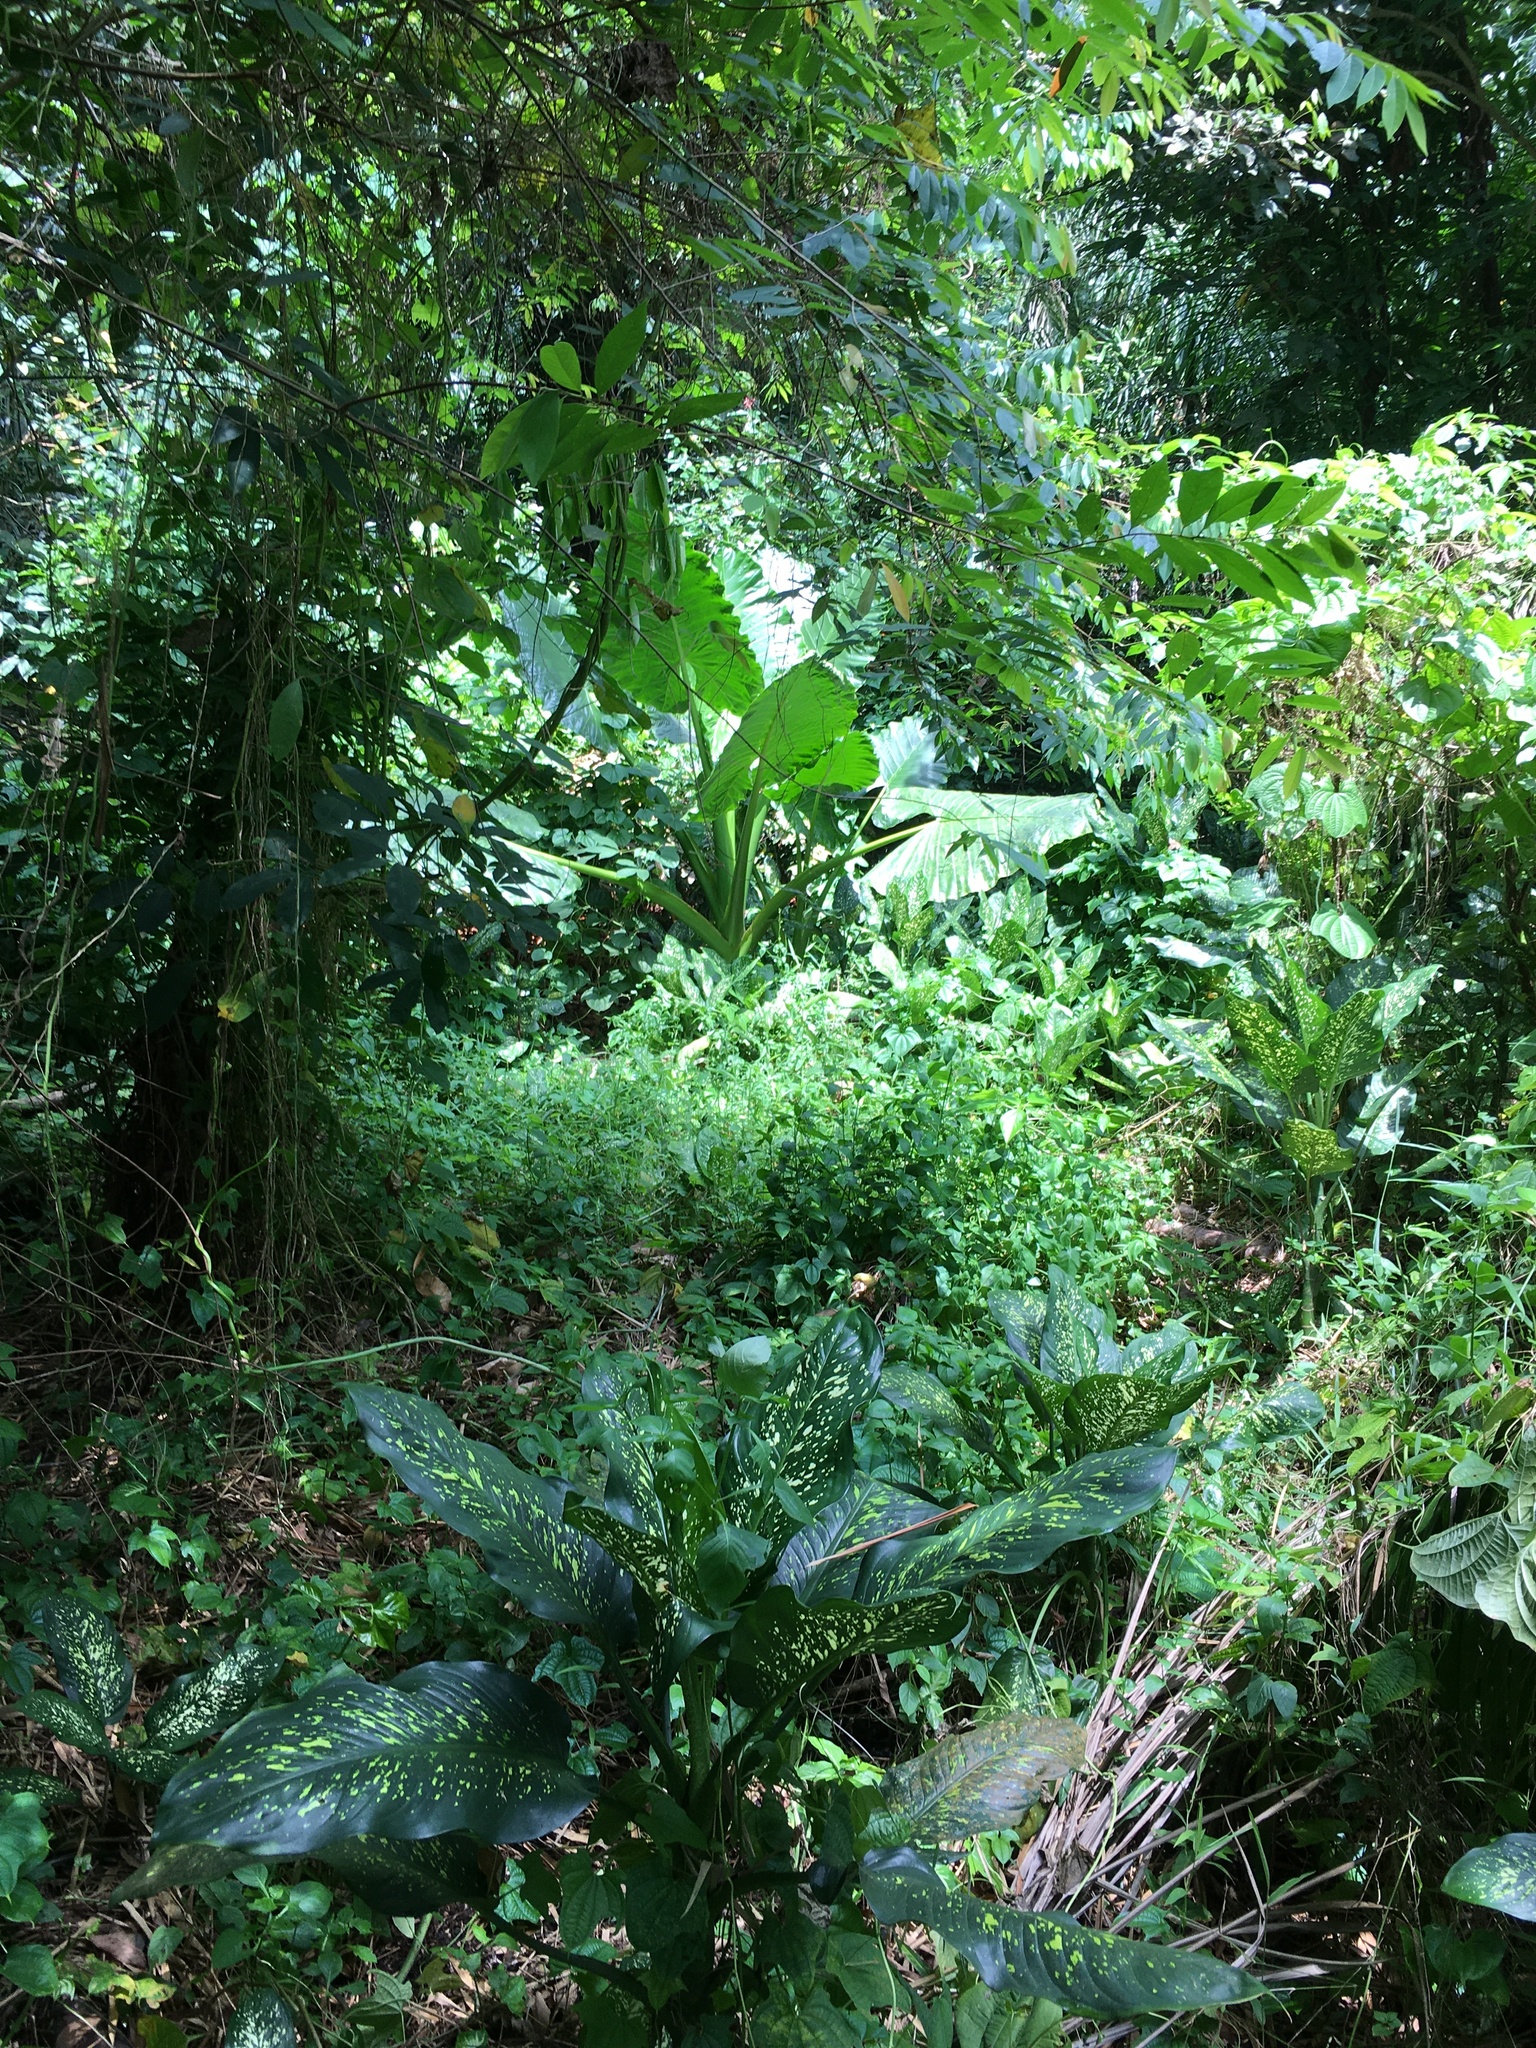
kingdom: Plantae
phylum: Tracheophyta
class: Liliopsida
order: Alismatales
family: Araceae
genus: Alocasia
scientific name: Alocasia macrorrhizos
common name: Giant taro
